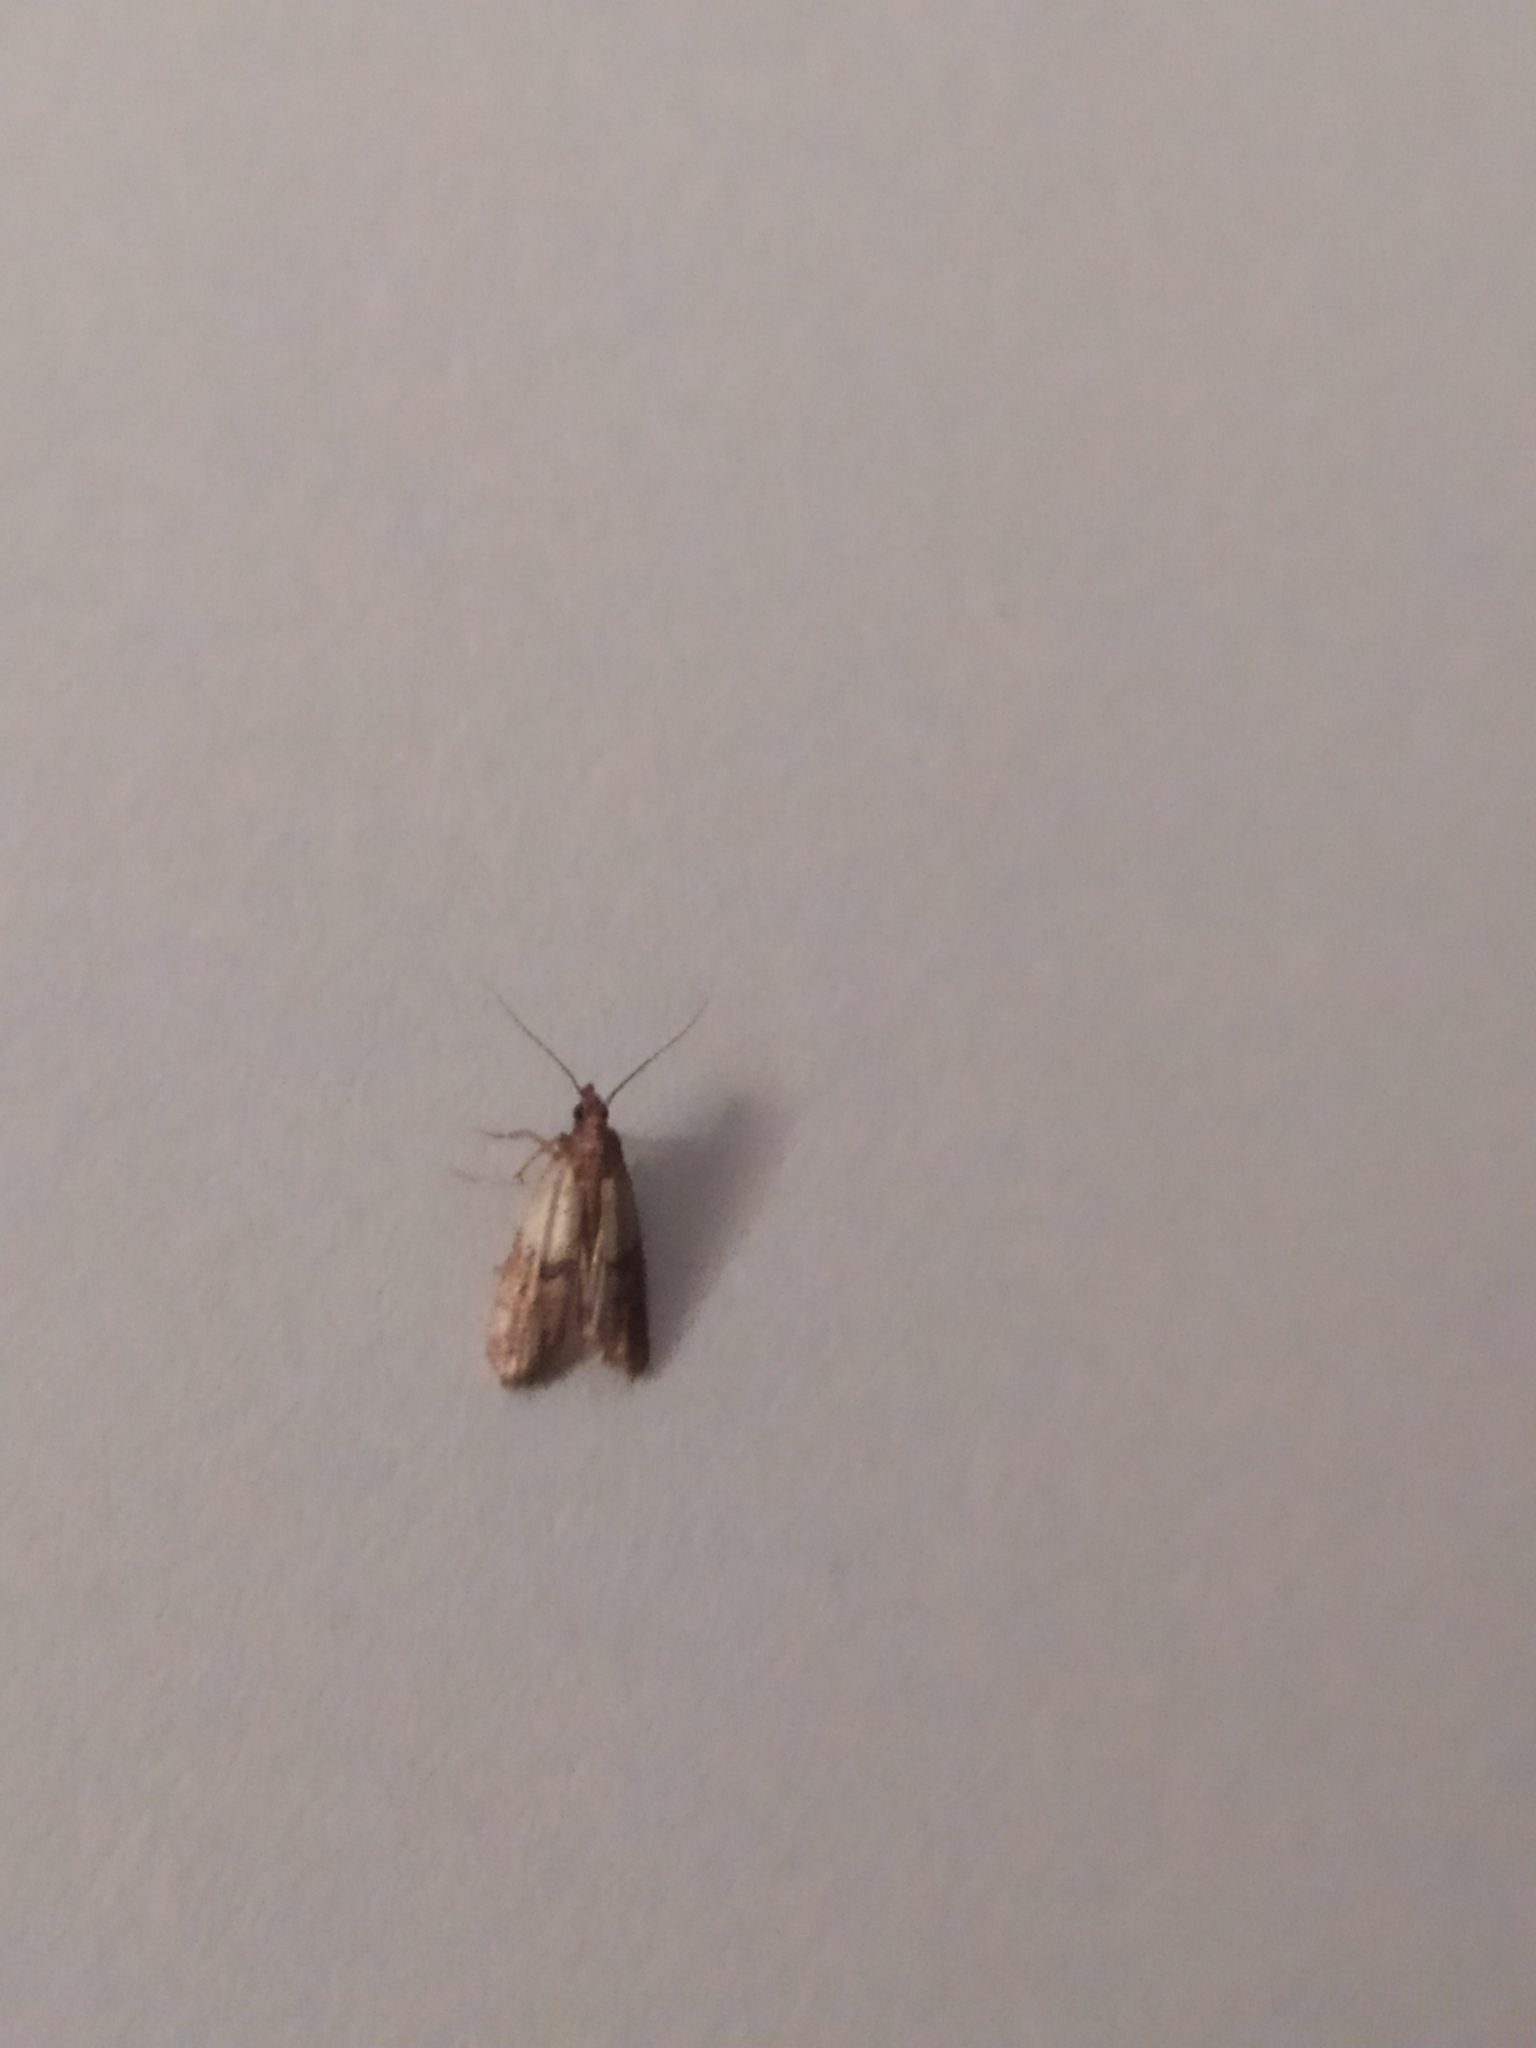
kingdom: Animalia
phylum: Arthropoda
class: Insecta
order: Lepidoptera
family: Pyralidae
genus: Plodia
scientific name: Plodia interpunctella
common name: Indian meal moth
